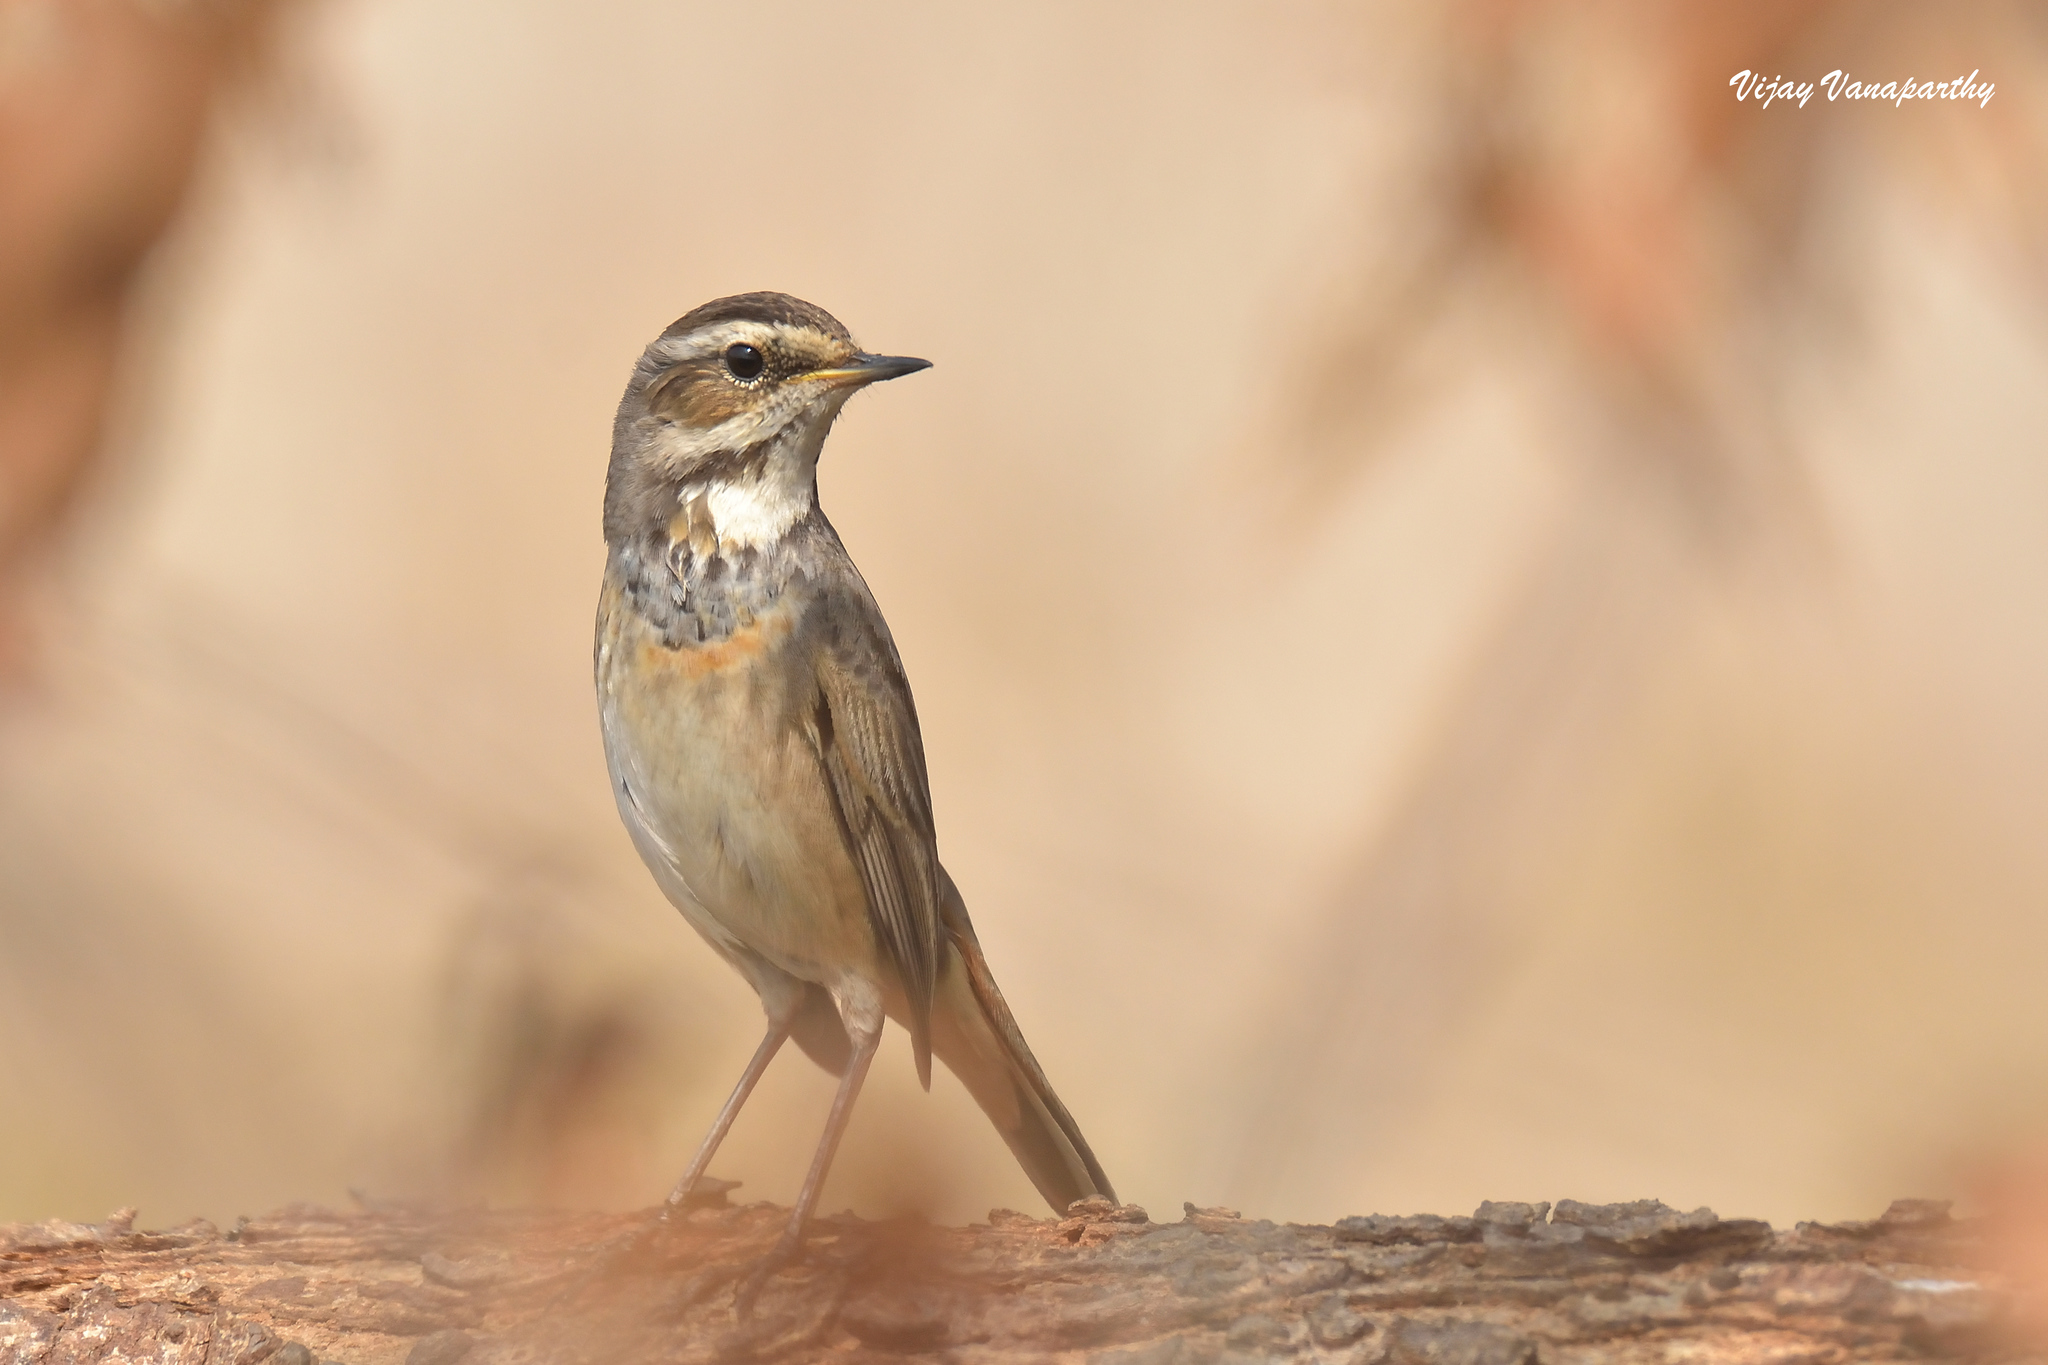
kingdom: Animalia
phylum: Chordata
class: Aves
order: Passeriformes
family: Muscicapidae
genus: Luscinia
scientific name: Luscinia svecica
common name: Bluethroat
